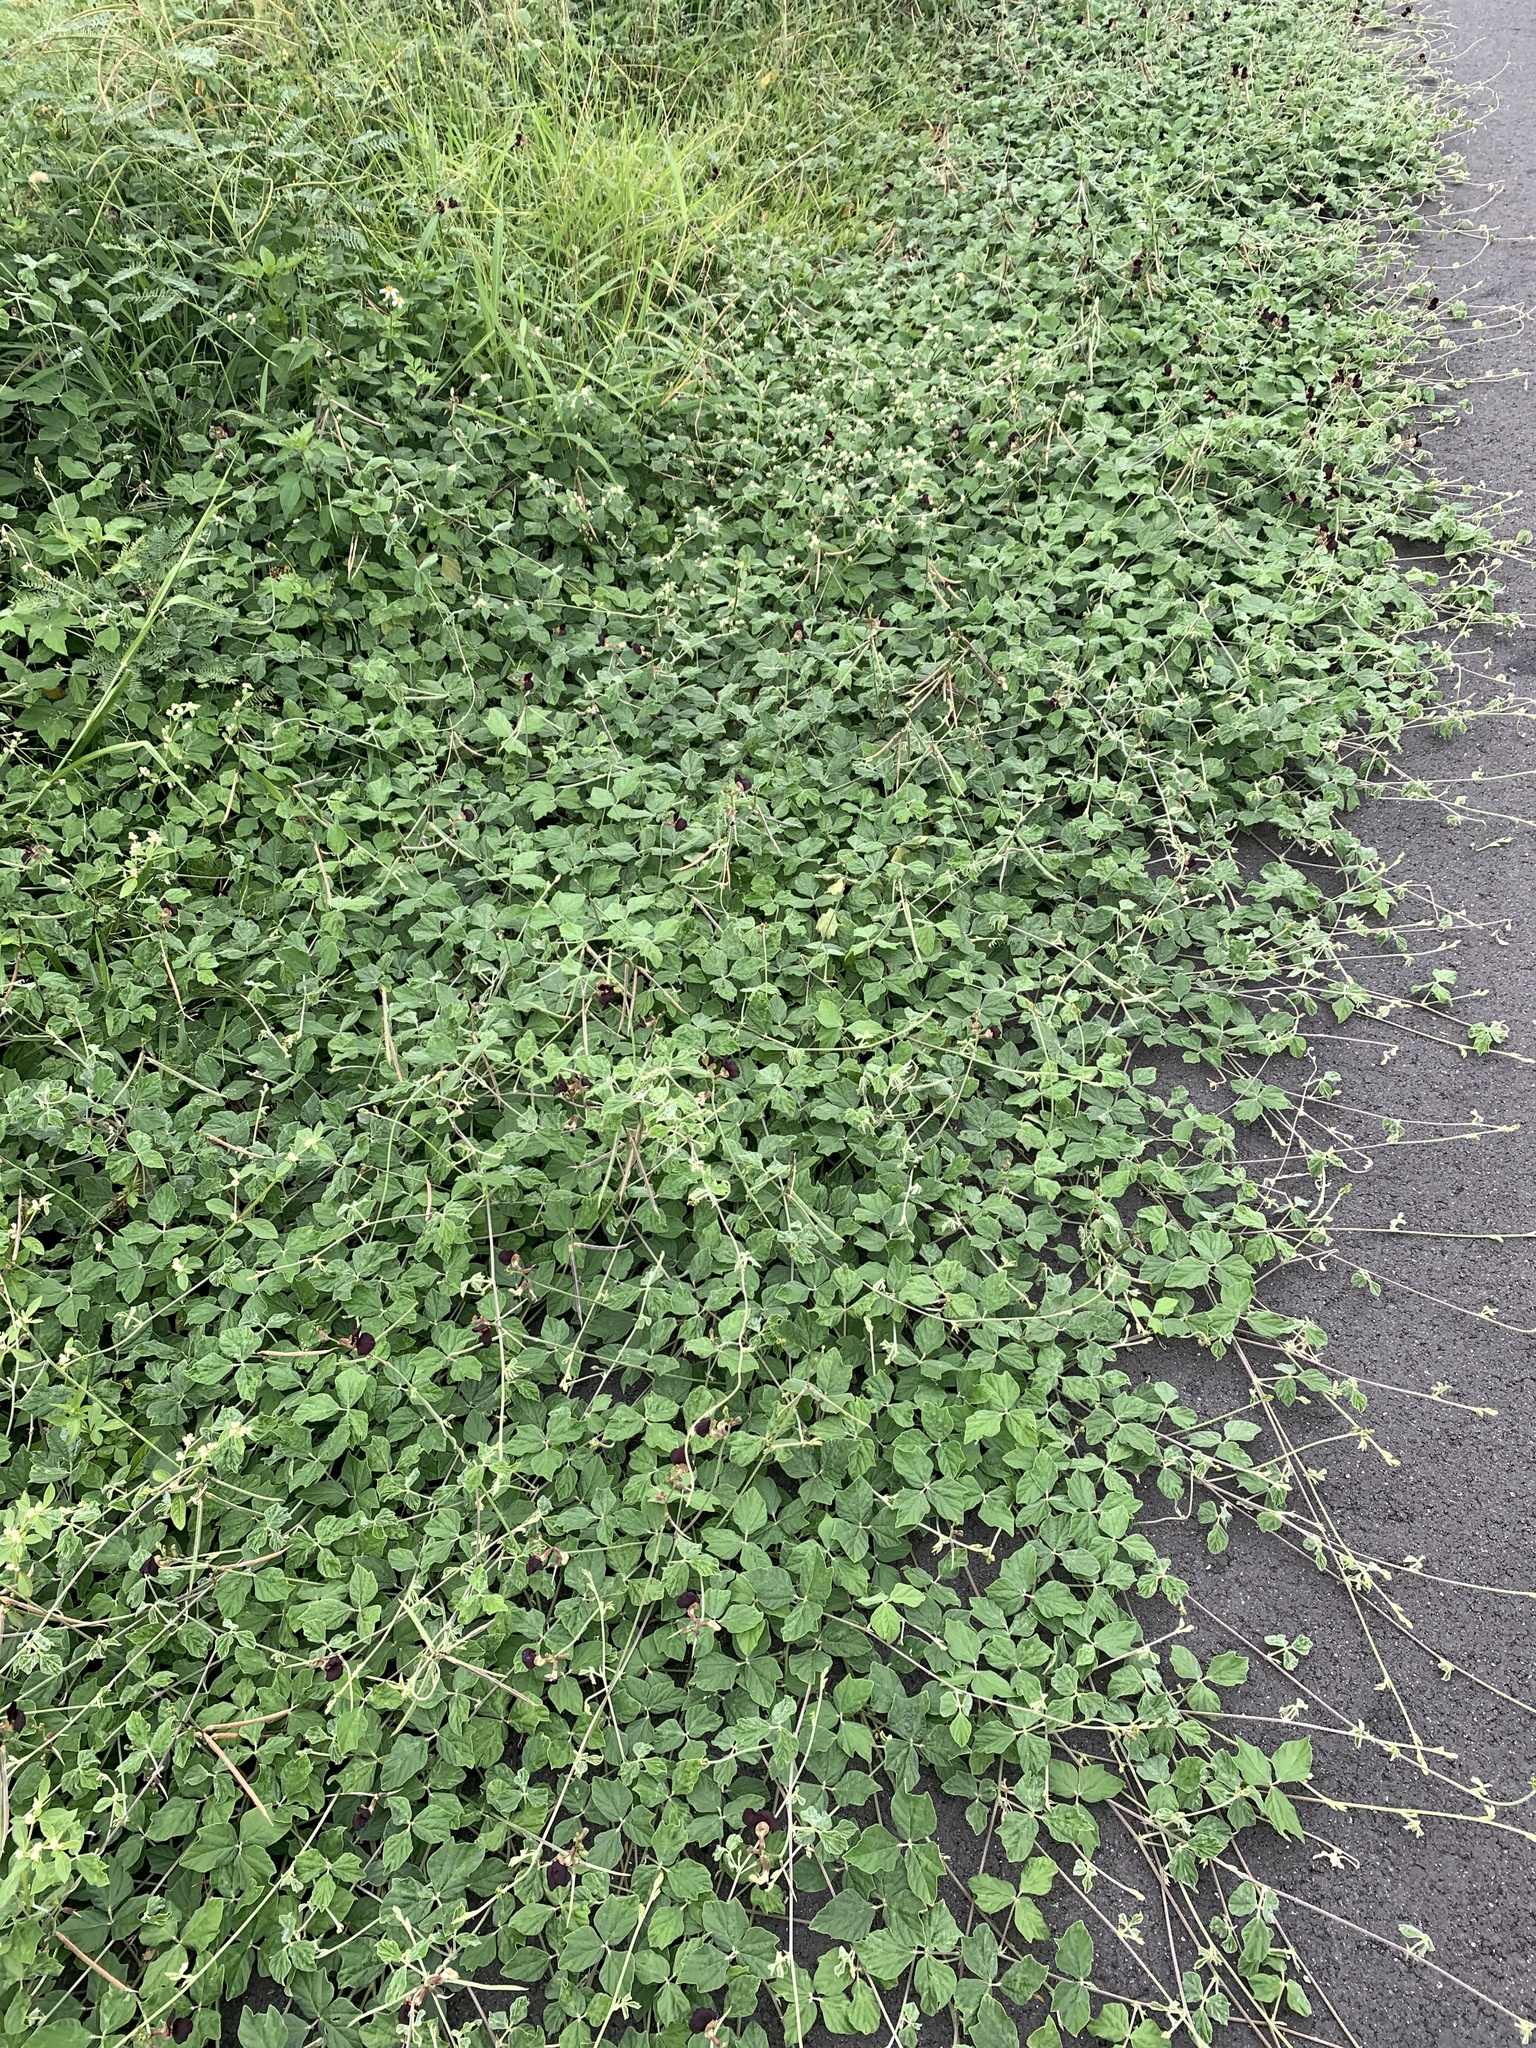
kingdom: Plantae
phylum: Tracheophyta
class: Magnoliopsida
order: Fabales
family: Fabaceae
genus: Macroptilium
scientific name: Macroptilium atropurpureum
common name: Purple bushbean
